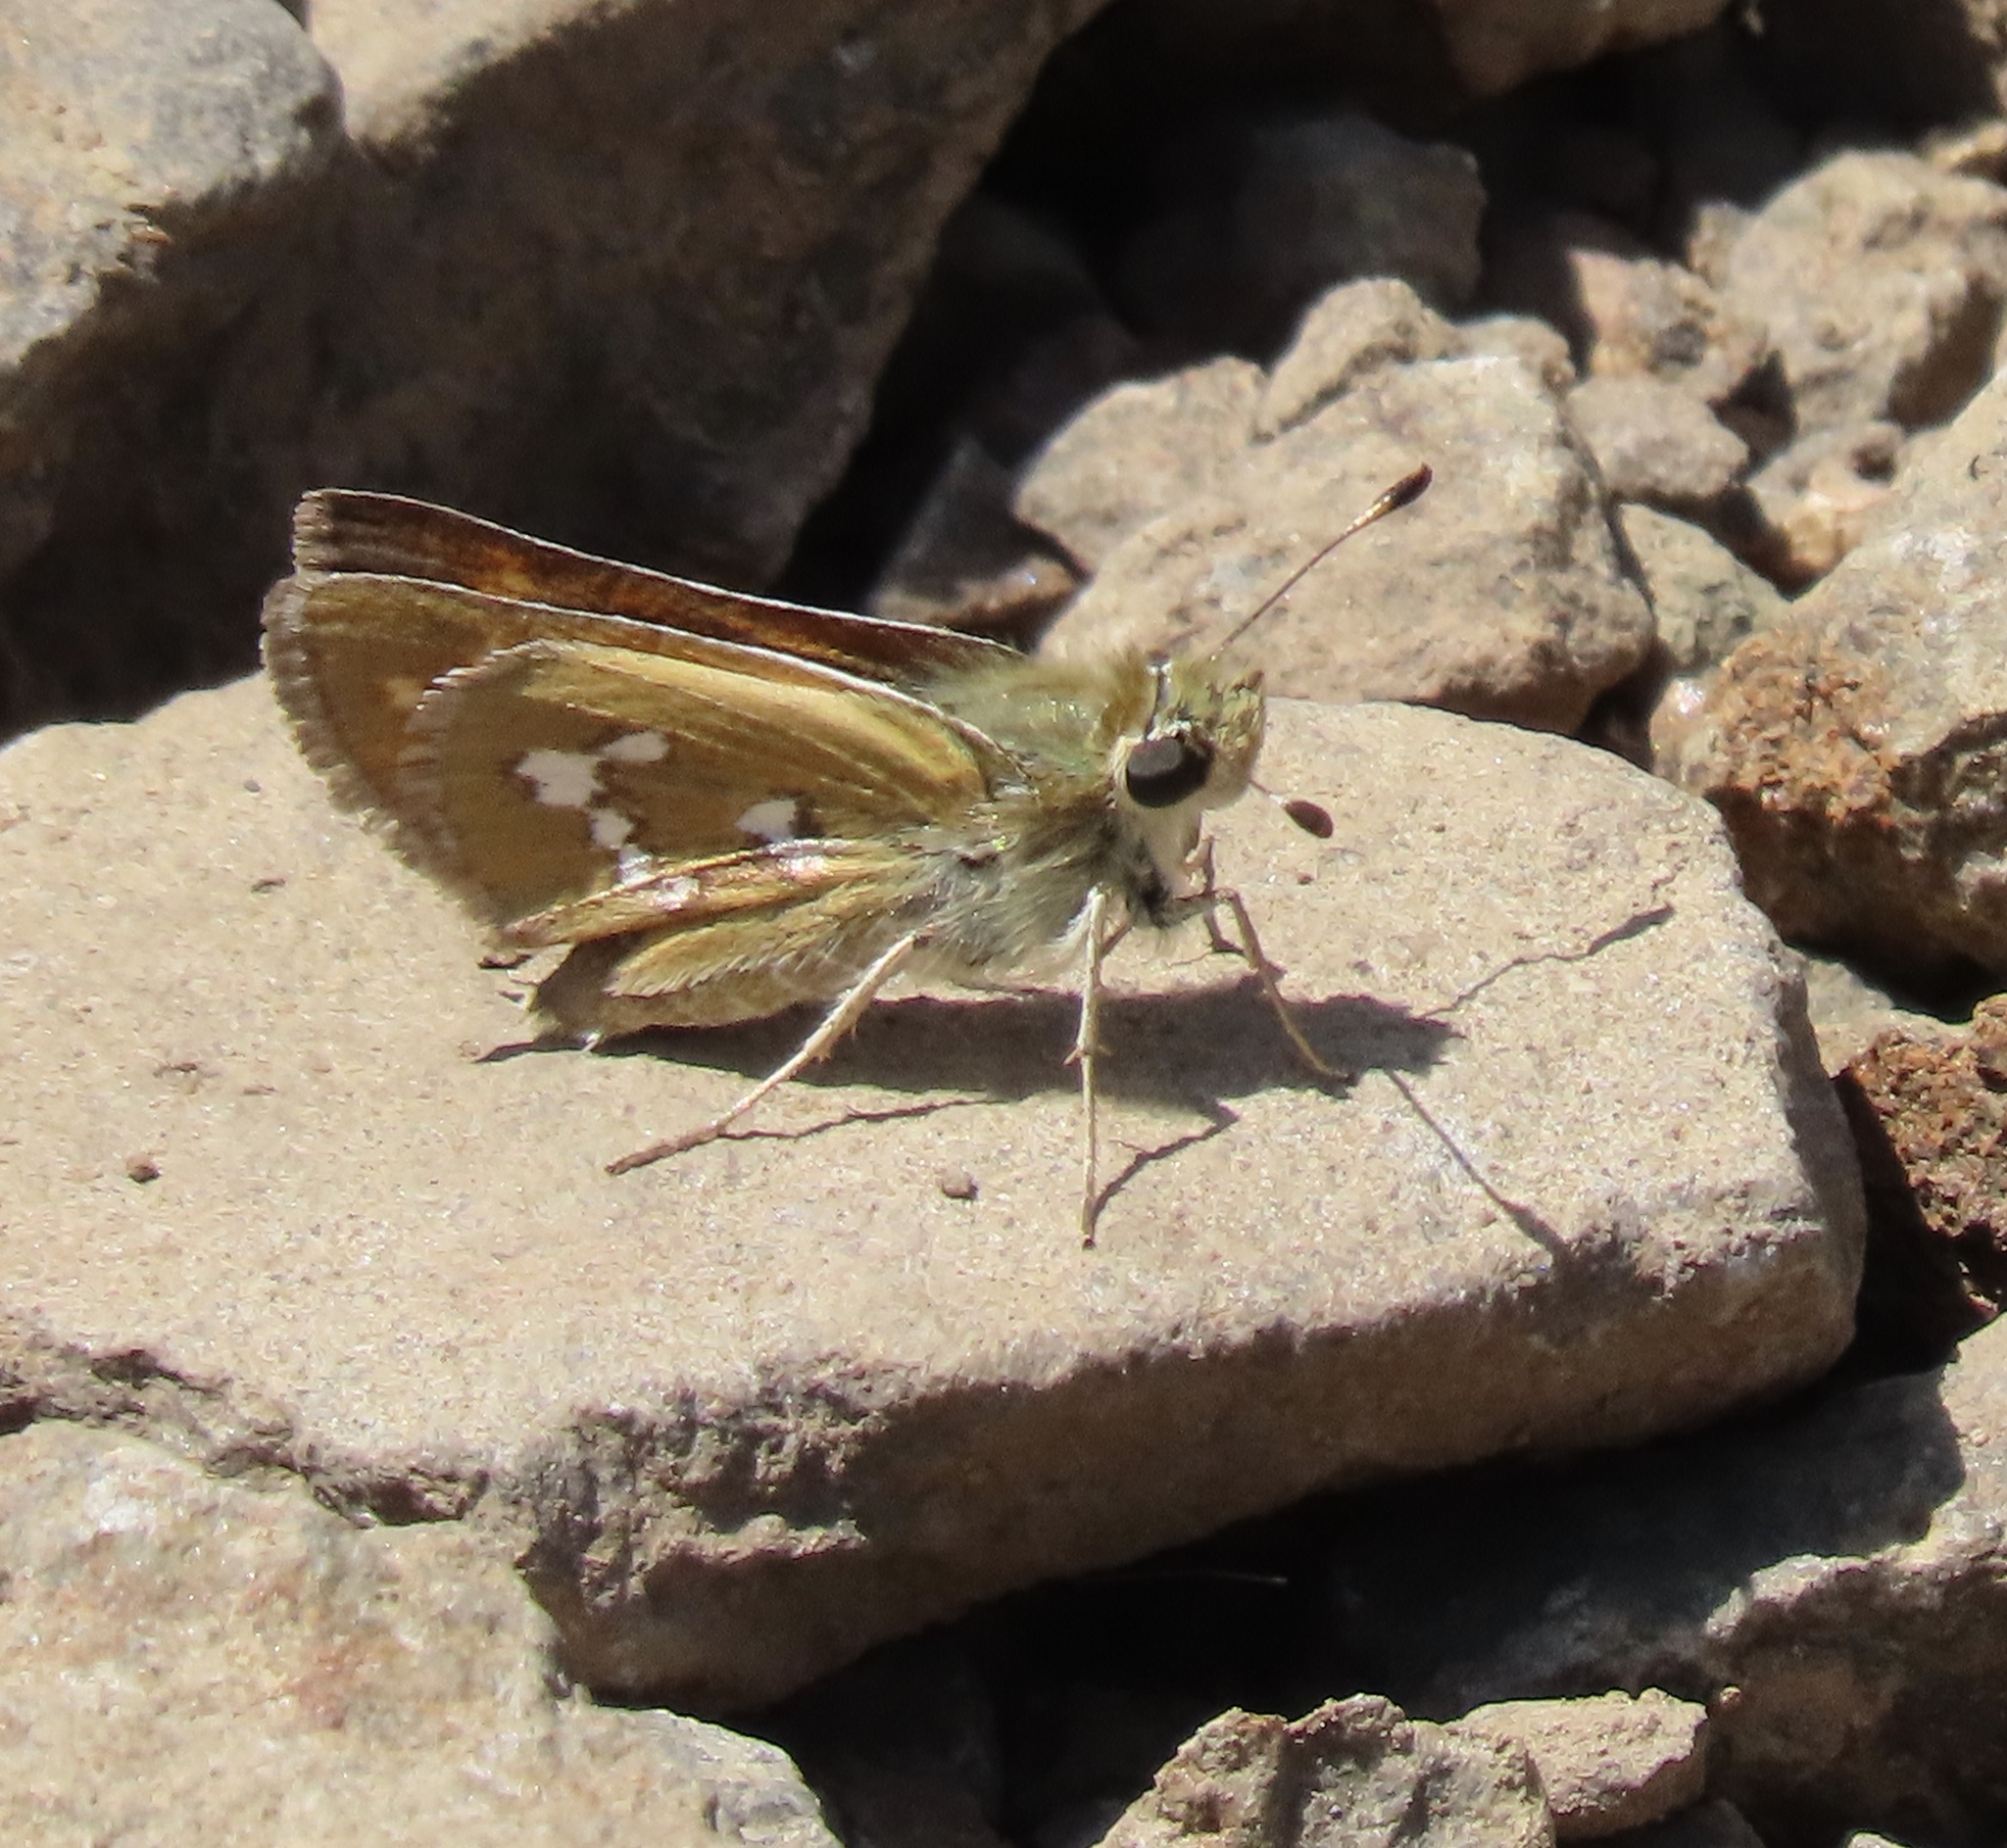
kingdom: Animalia
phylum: Arthropoda
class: Insecta
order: Lepidoptera
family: Hesperiidae
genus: Hesperia
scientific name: Hesperia columbia
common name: Columbian skipper
